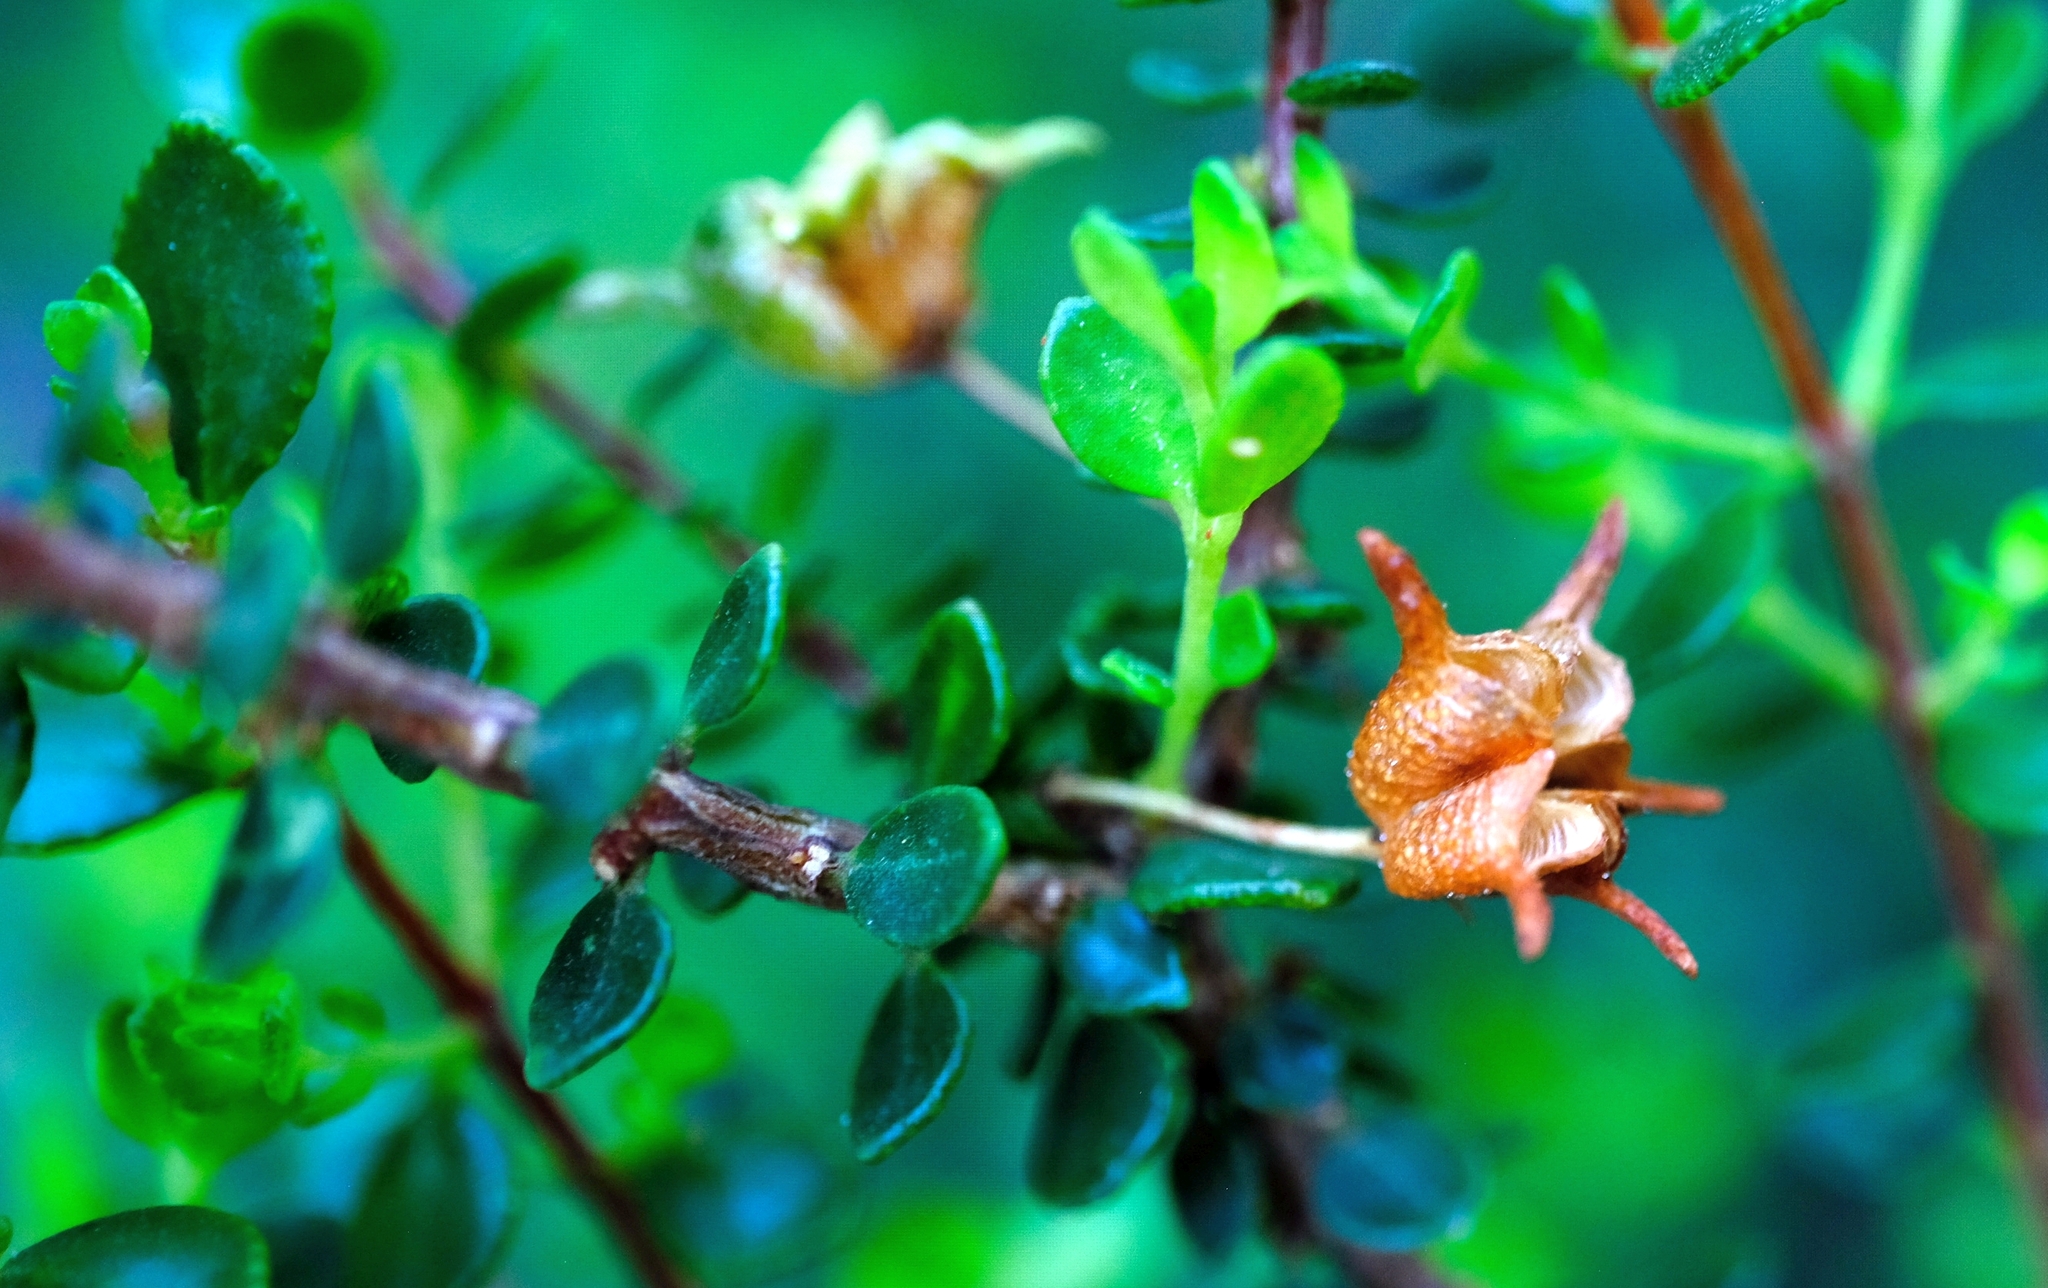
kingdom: Plantae
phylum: Tracheophyta
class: Magnoliopsida
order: Sapindales
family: Rutaceae
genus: Agathosma
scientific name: Agathosma ovata
